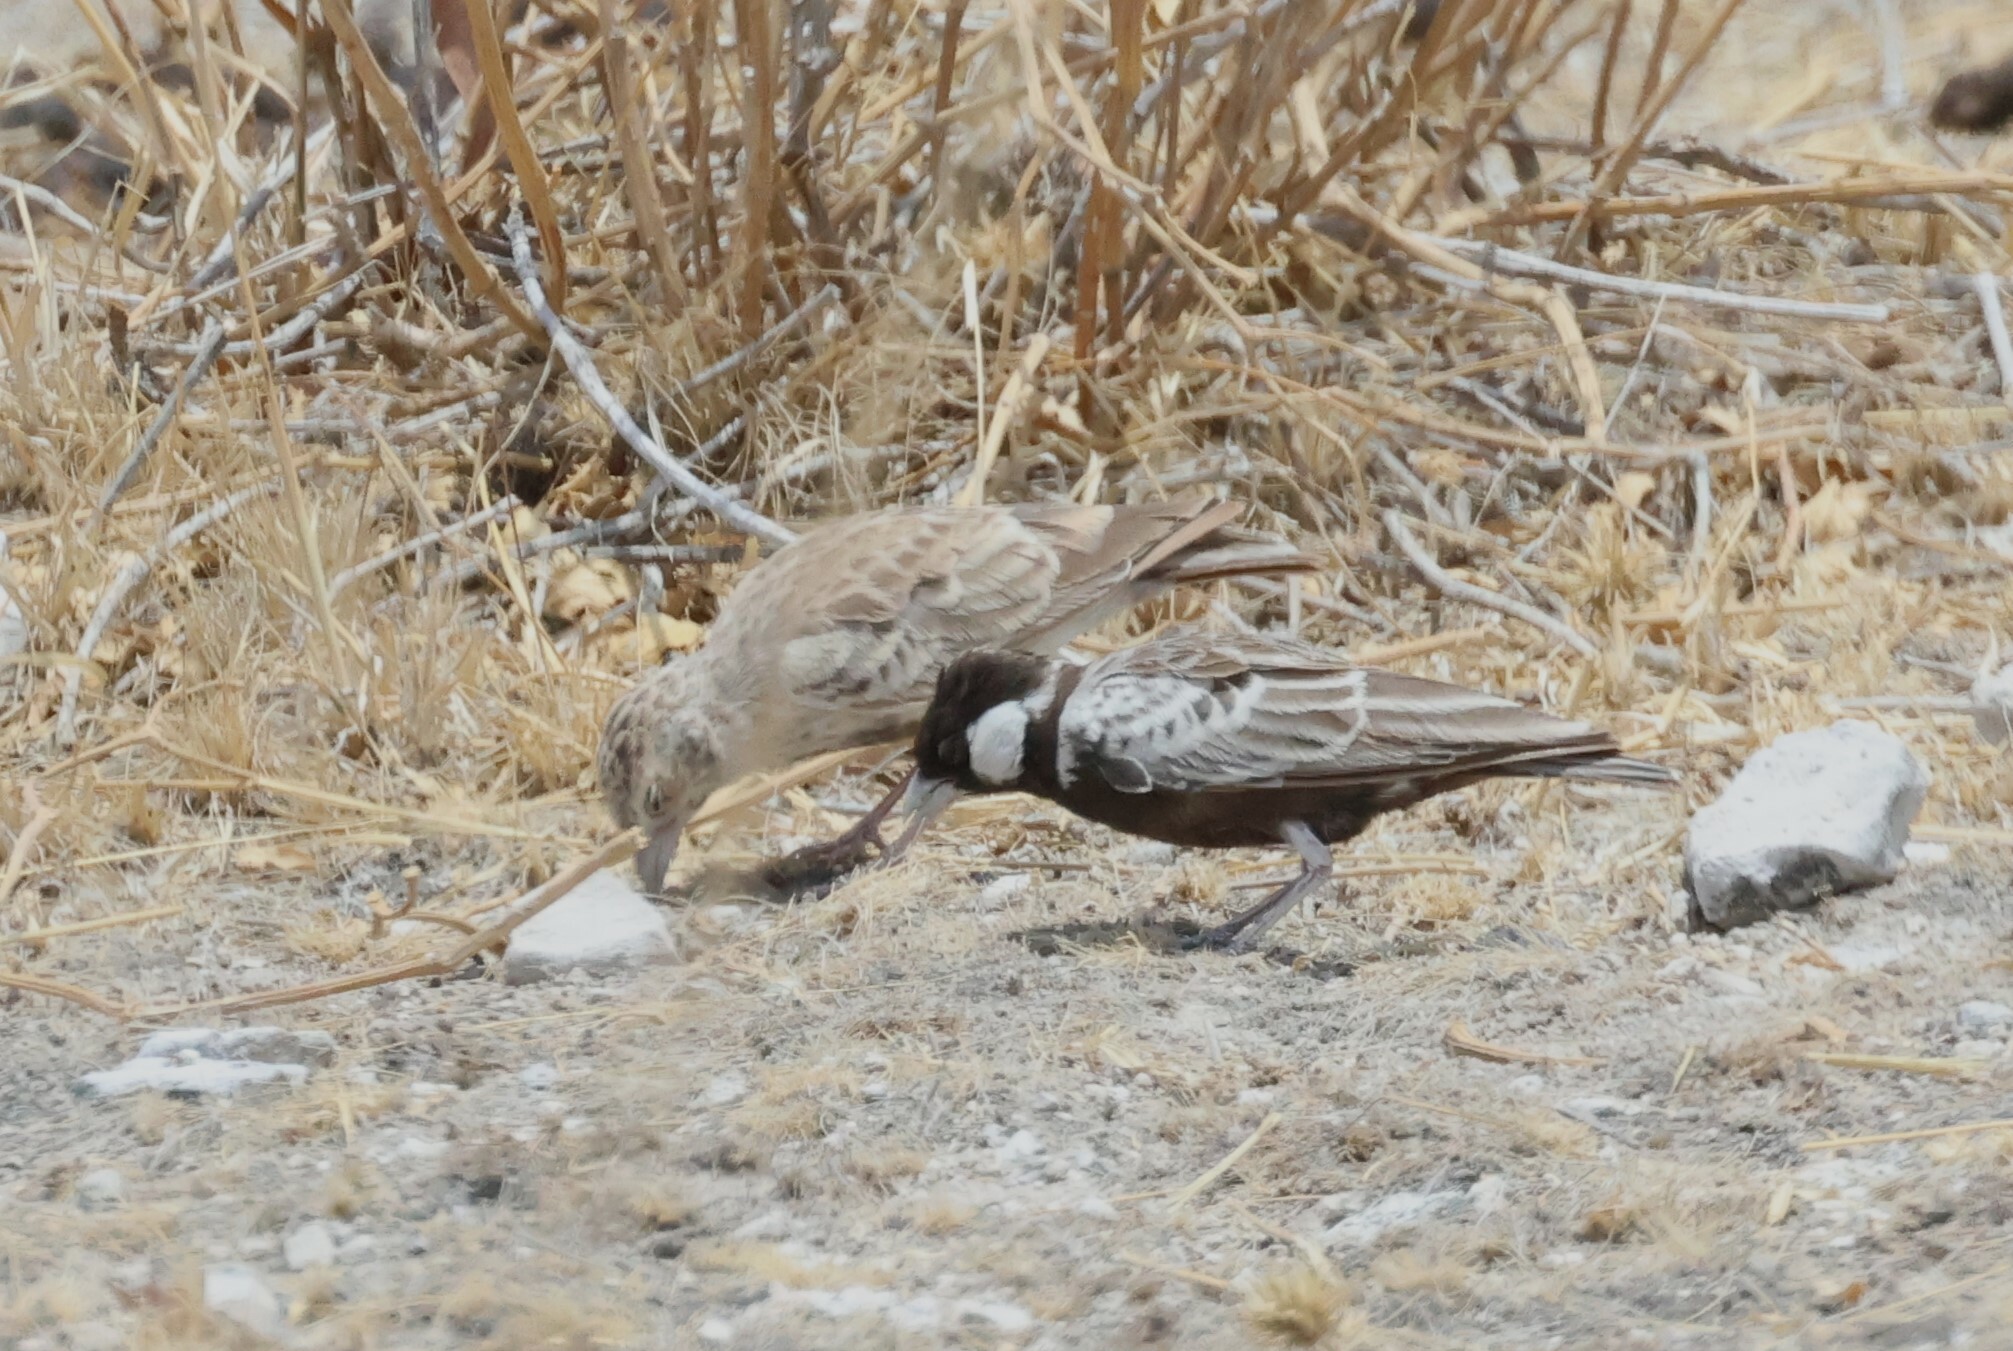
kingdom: Animalia
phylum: Chordata
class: Aves
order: Passeriformes
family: Alaudidae
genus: Eremopterix
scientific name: Eremopterix verticalis
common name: Grey-backed sparrow-lark
